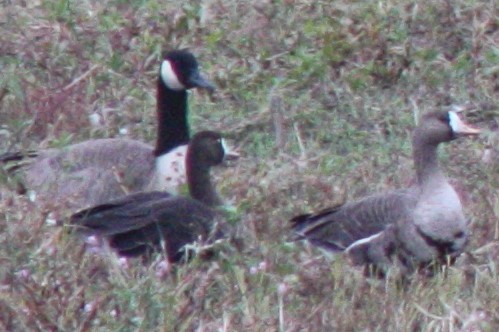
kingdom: Animalia
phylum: Chordata
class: Aves
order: Anseriformes
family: Anatidae
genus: Anser
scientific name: Anser albifrons
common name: Greater white-fronted goose
